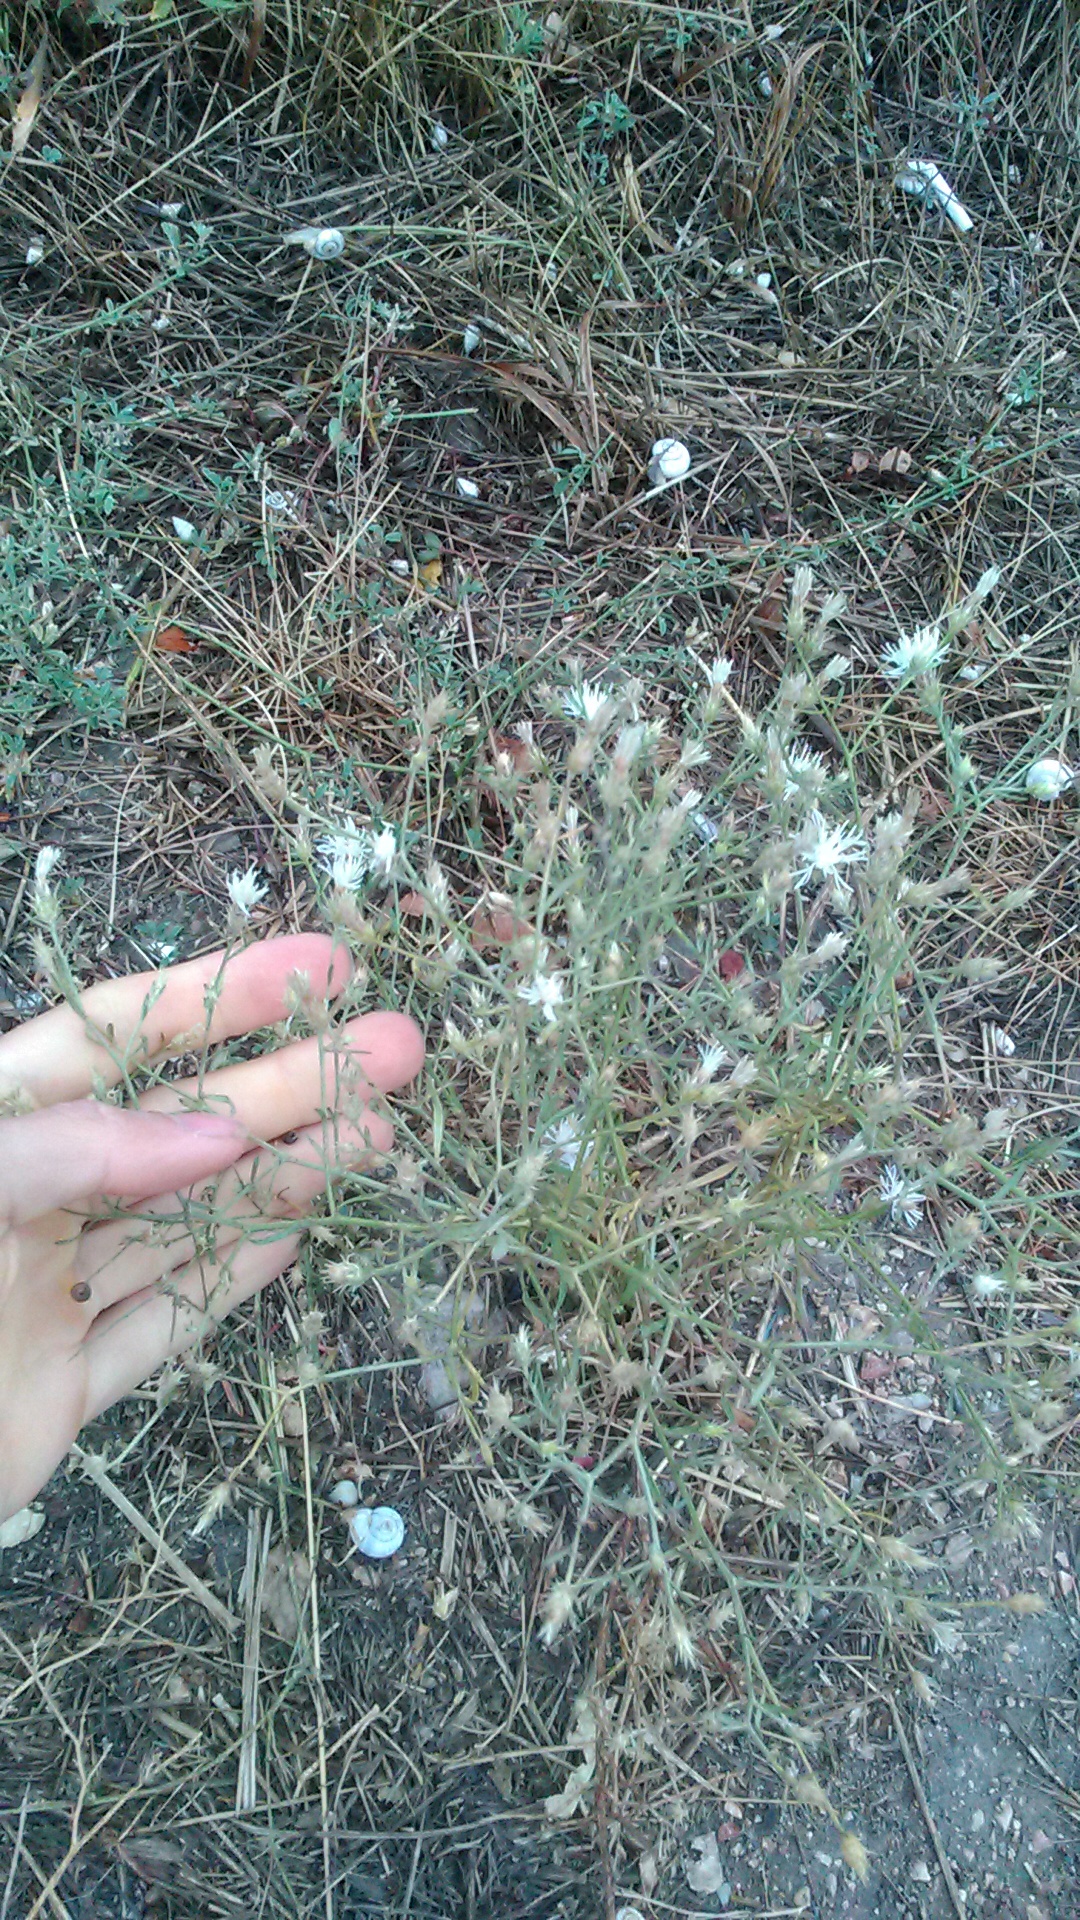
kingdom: Plantae
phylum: Tracheophyta
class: Magnoliopsida
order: Asterales
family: Asteraceae
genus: Centaurea
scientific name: Centaurea diffusa
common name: Diffuse knapweed
